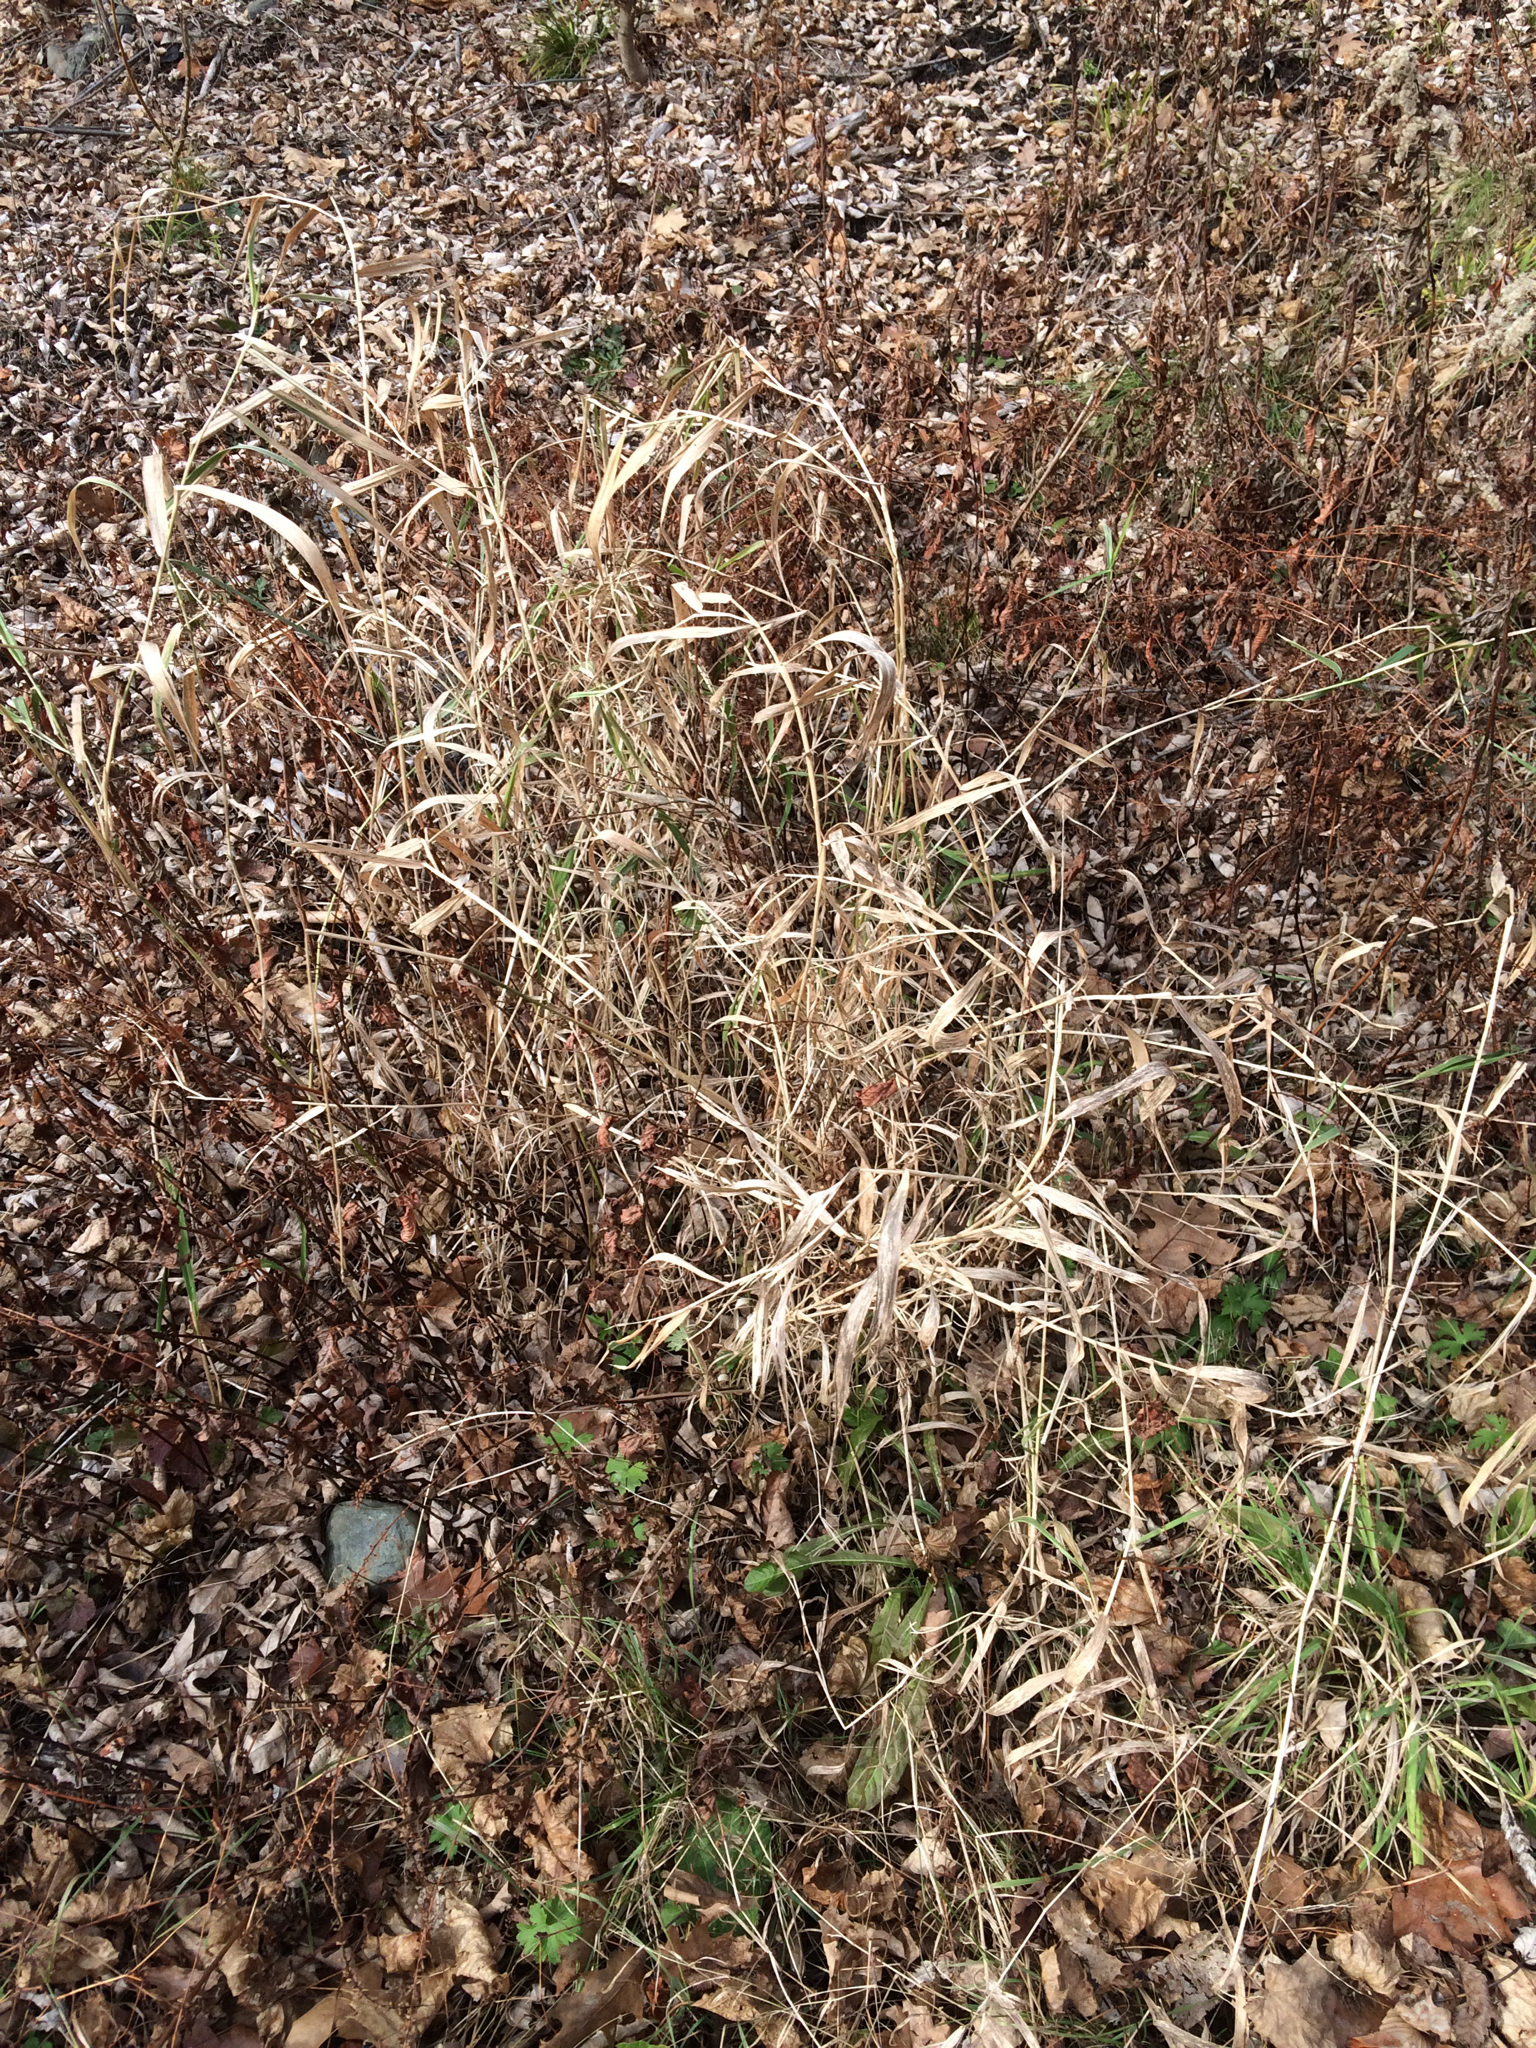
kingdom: Plantae
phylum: Tracheophyta
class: Liliopsida
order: Poales
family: Poaceae
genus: Phalaris
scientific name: Phalaris arundinacea
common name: Reed canary-grass
